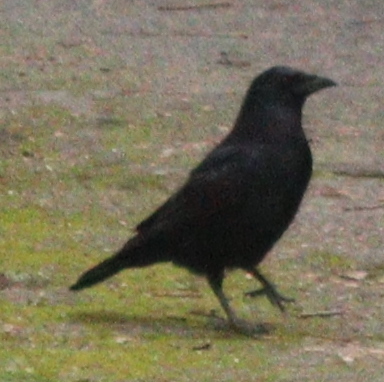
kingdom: Animalia
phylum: Chordata
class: Aves
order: Passeriformes
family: Corvidae
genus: Corvus
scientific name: Corvus corone
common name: Carrion crow
